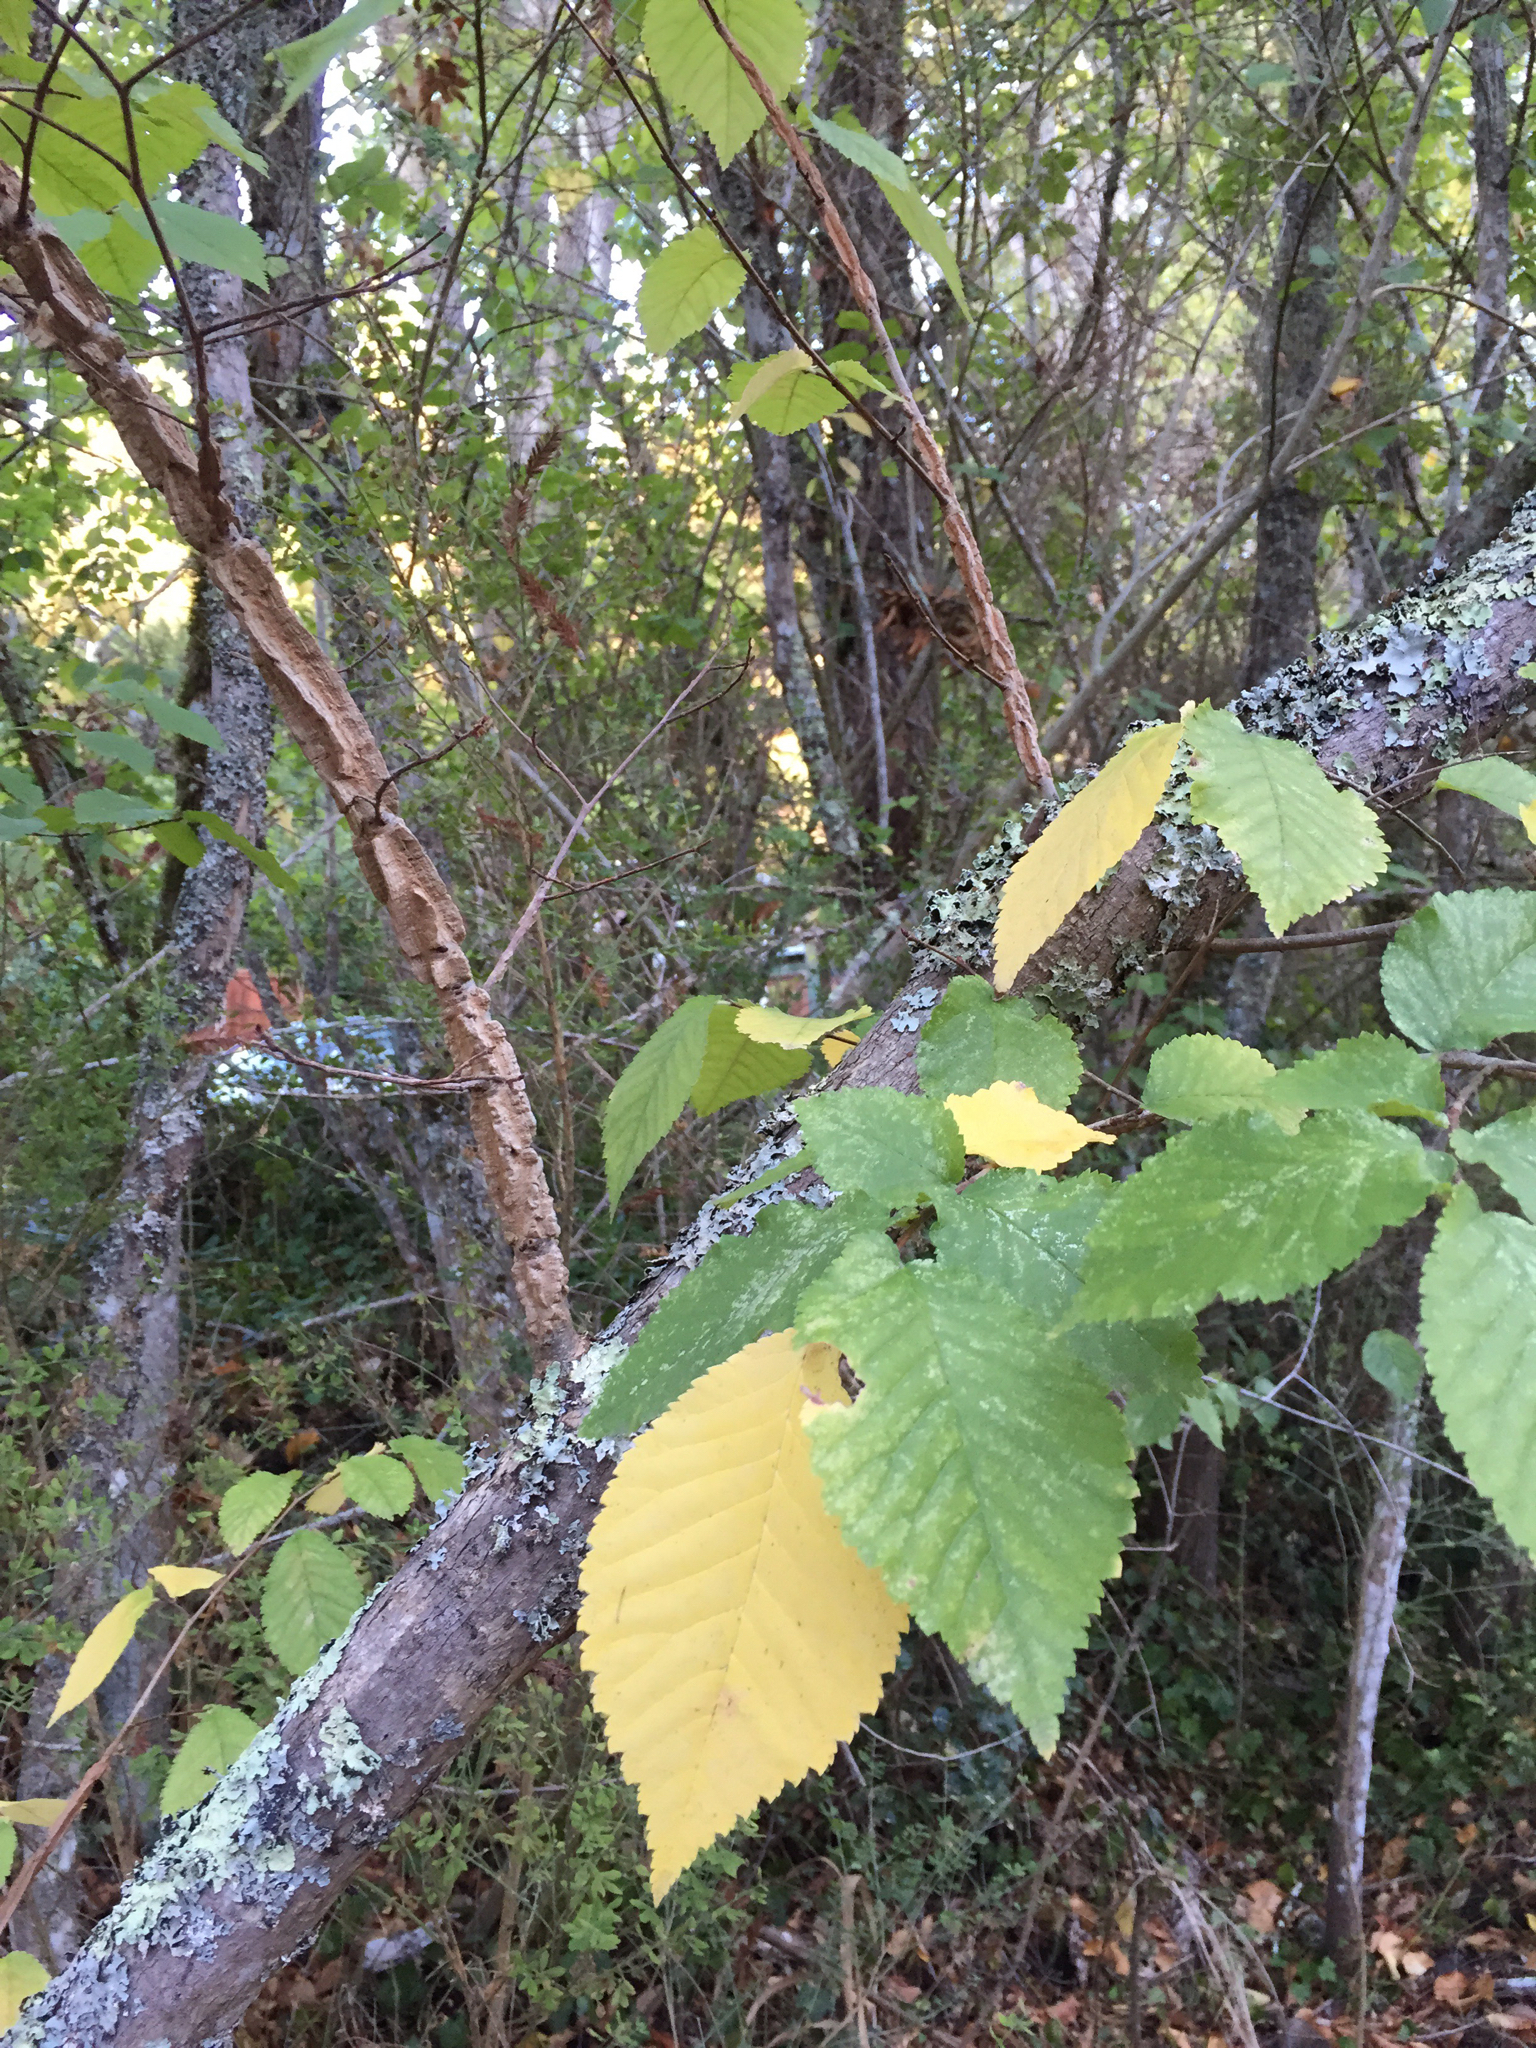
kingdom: Plantae
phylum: Tracheophyta
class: Magnoliopsida
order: Rosales
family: Ulmaceae
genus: Ulmus
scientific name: Ulmus minor
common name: Small-leaved elm
